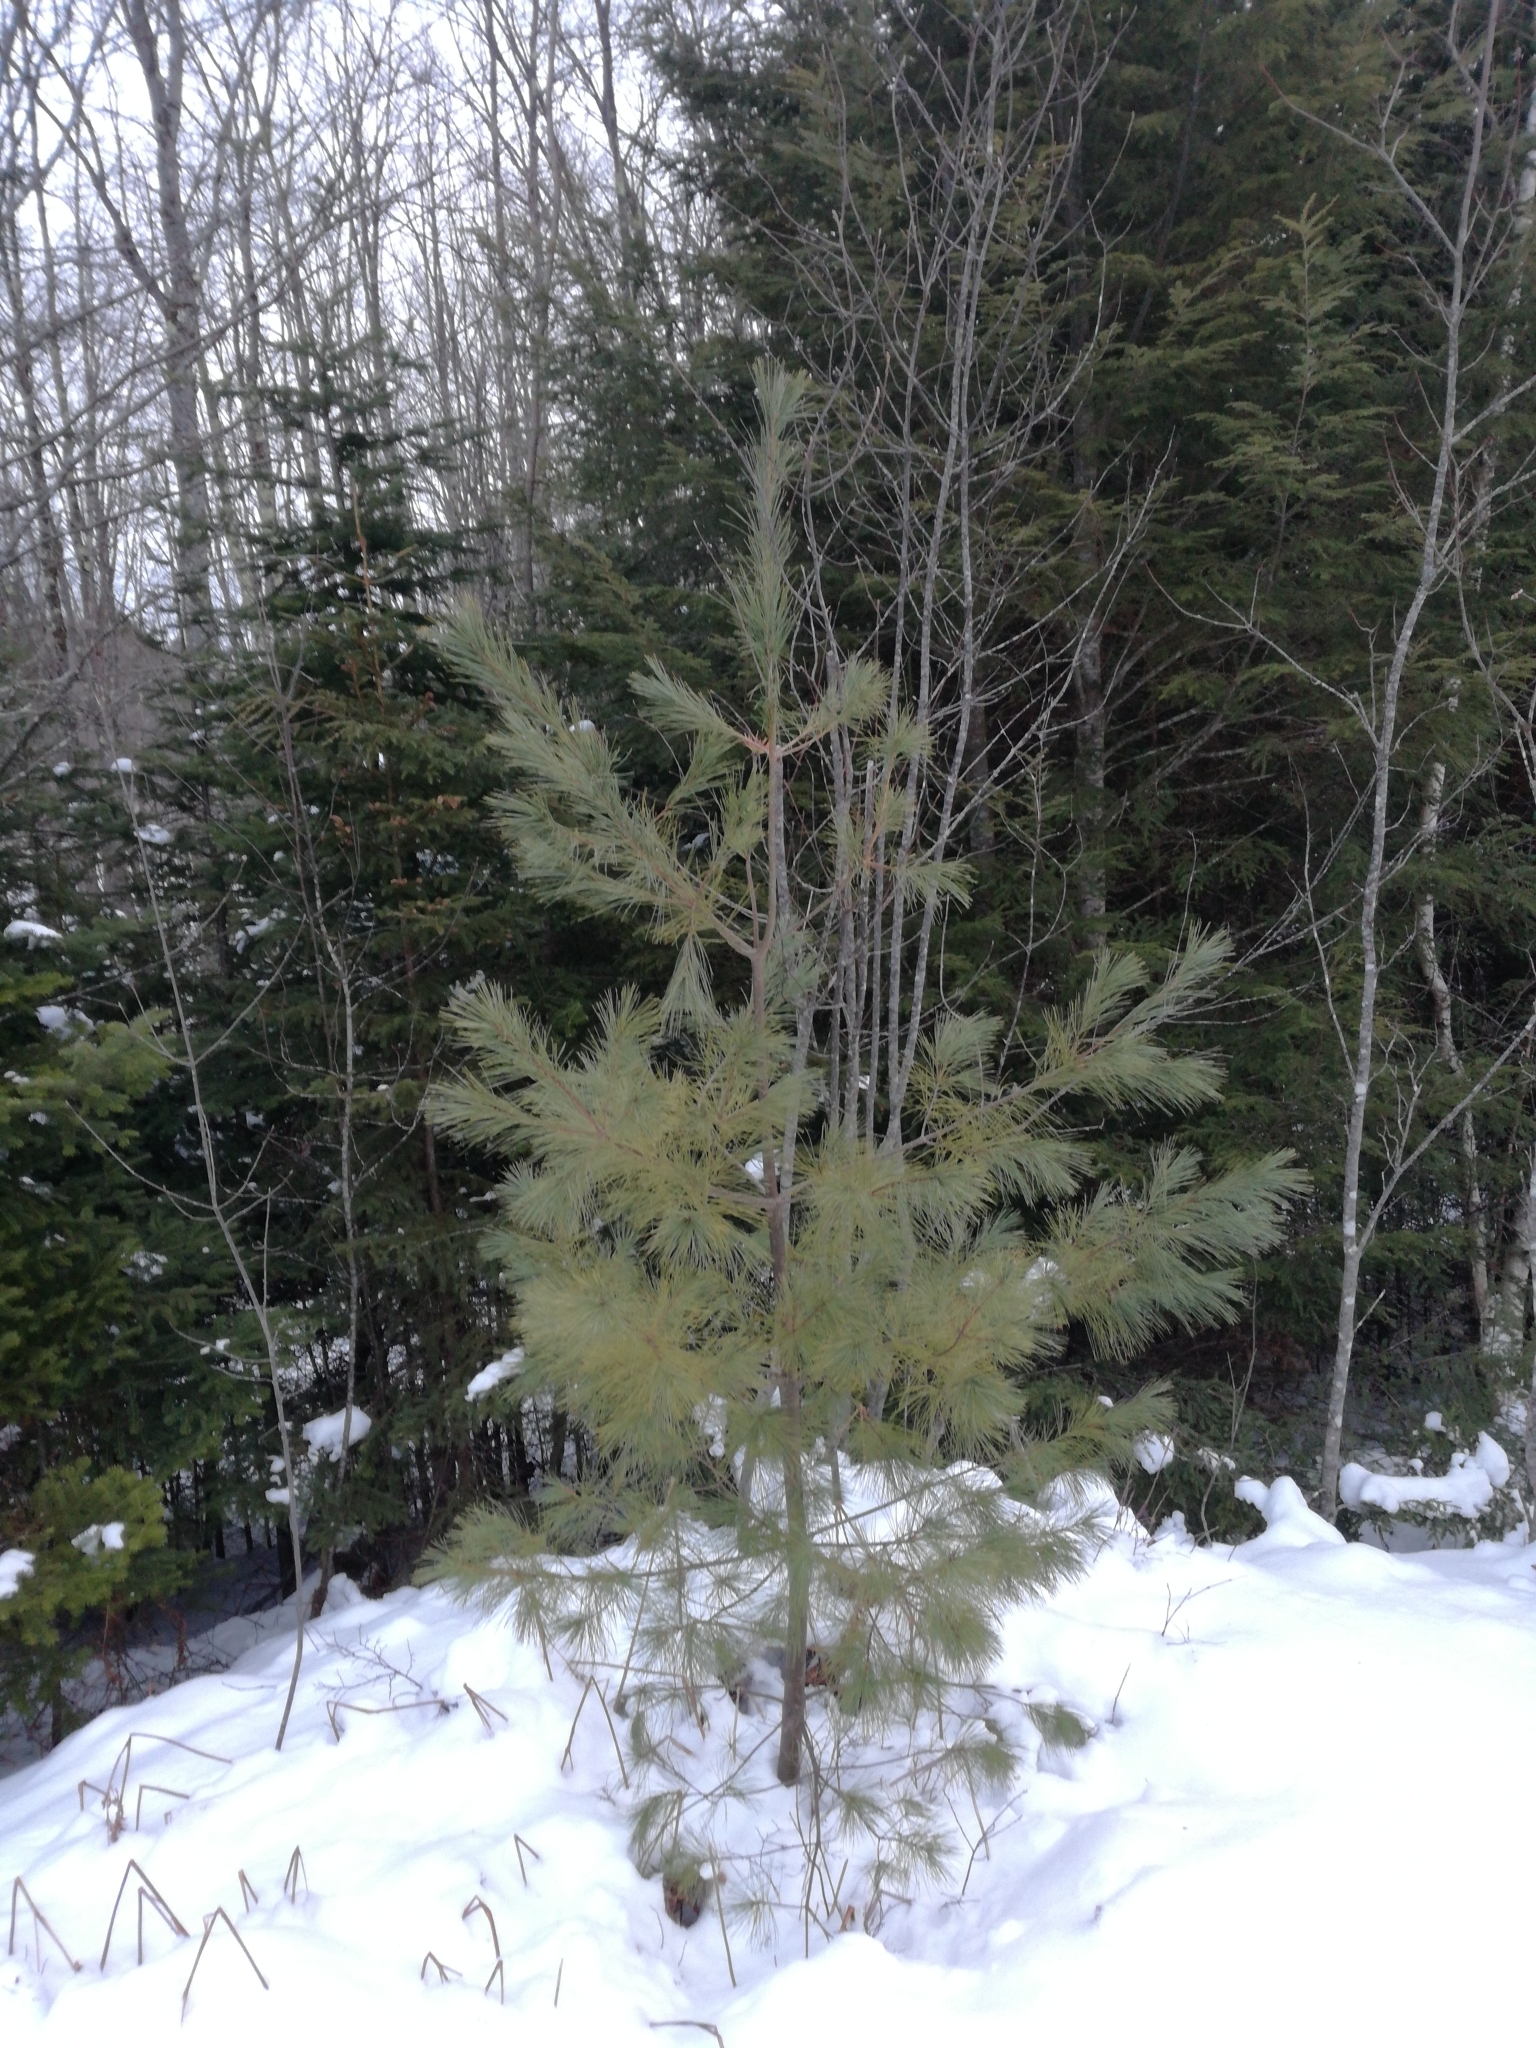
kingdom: Plantae
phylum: Tracheophyta
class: Pinopsida
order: Pinales
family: Pinaceae
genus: Pinus
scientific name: Pinus strobus
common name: Weymouth pine
